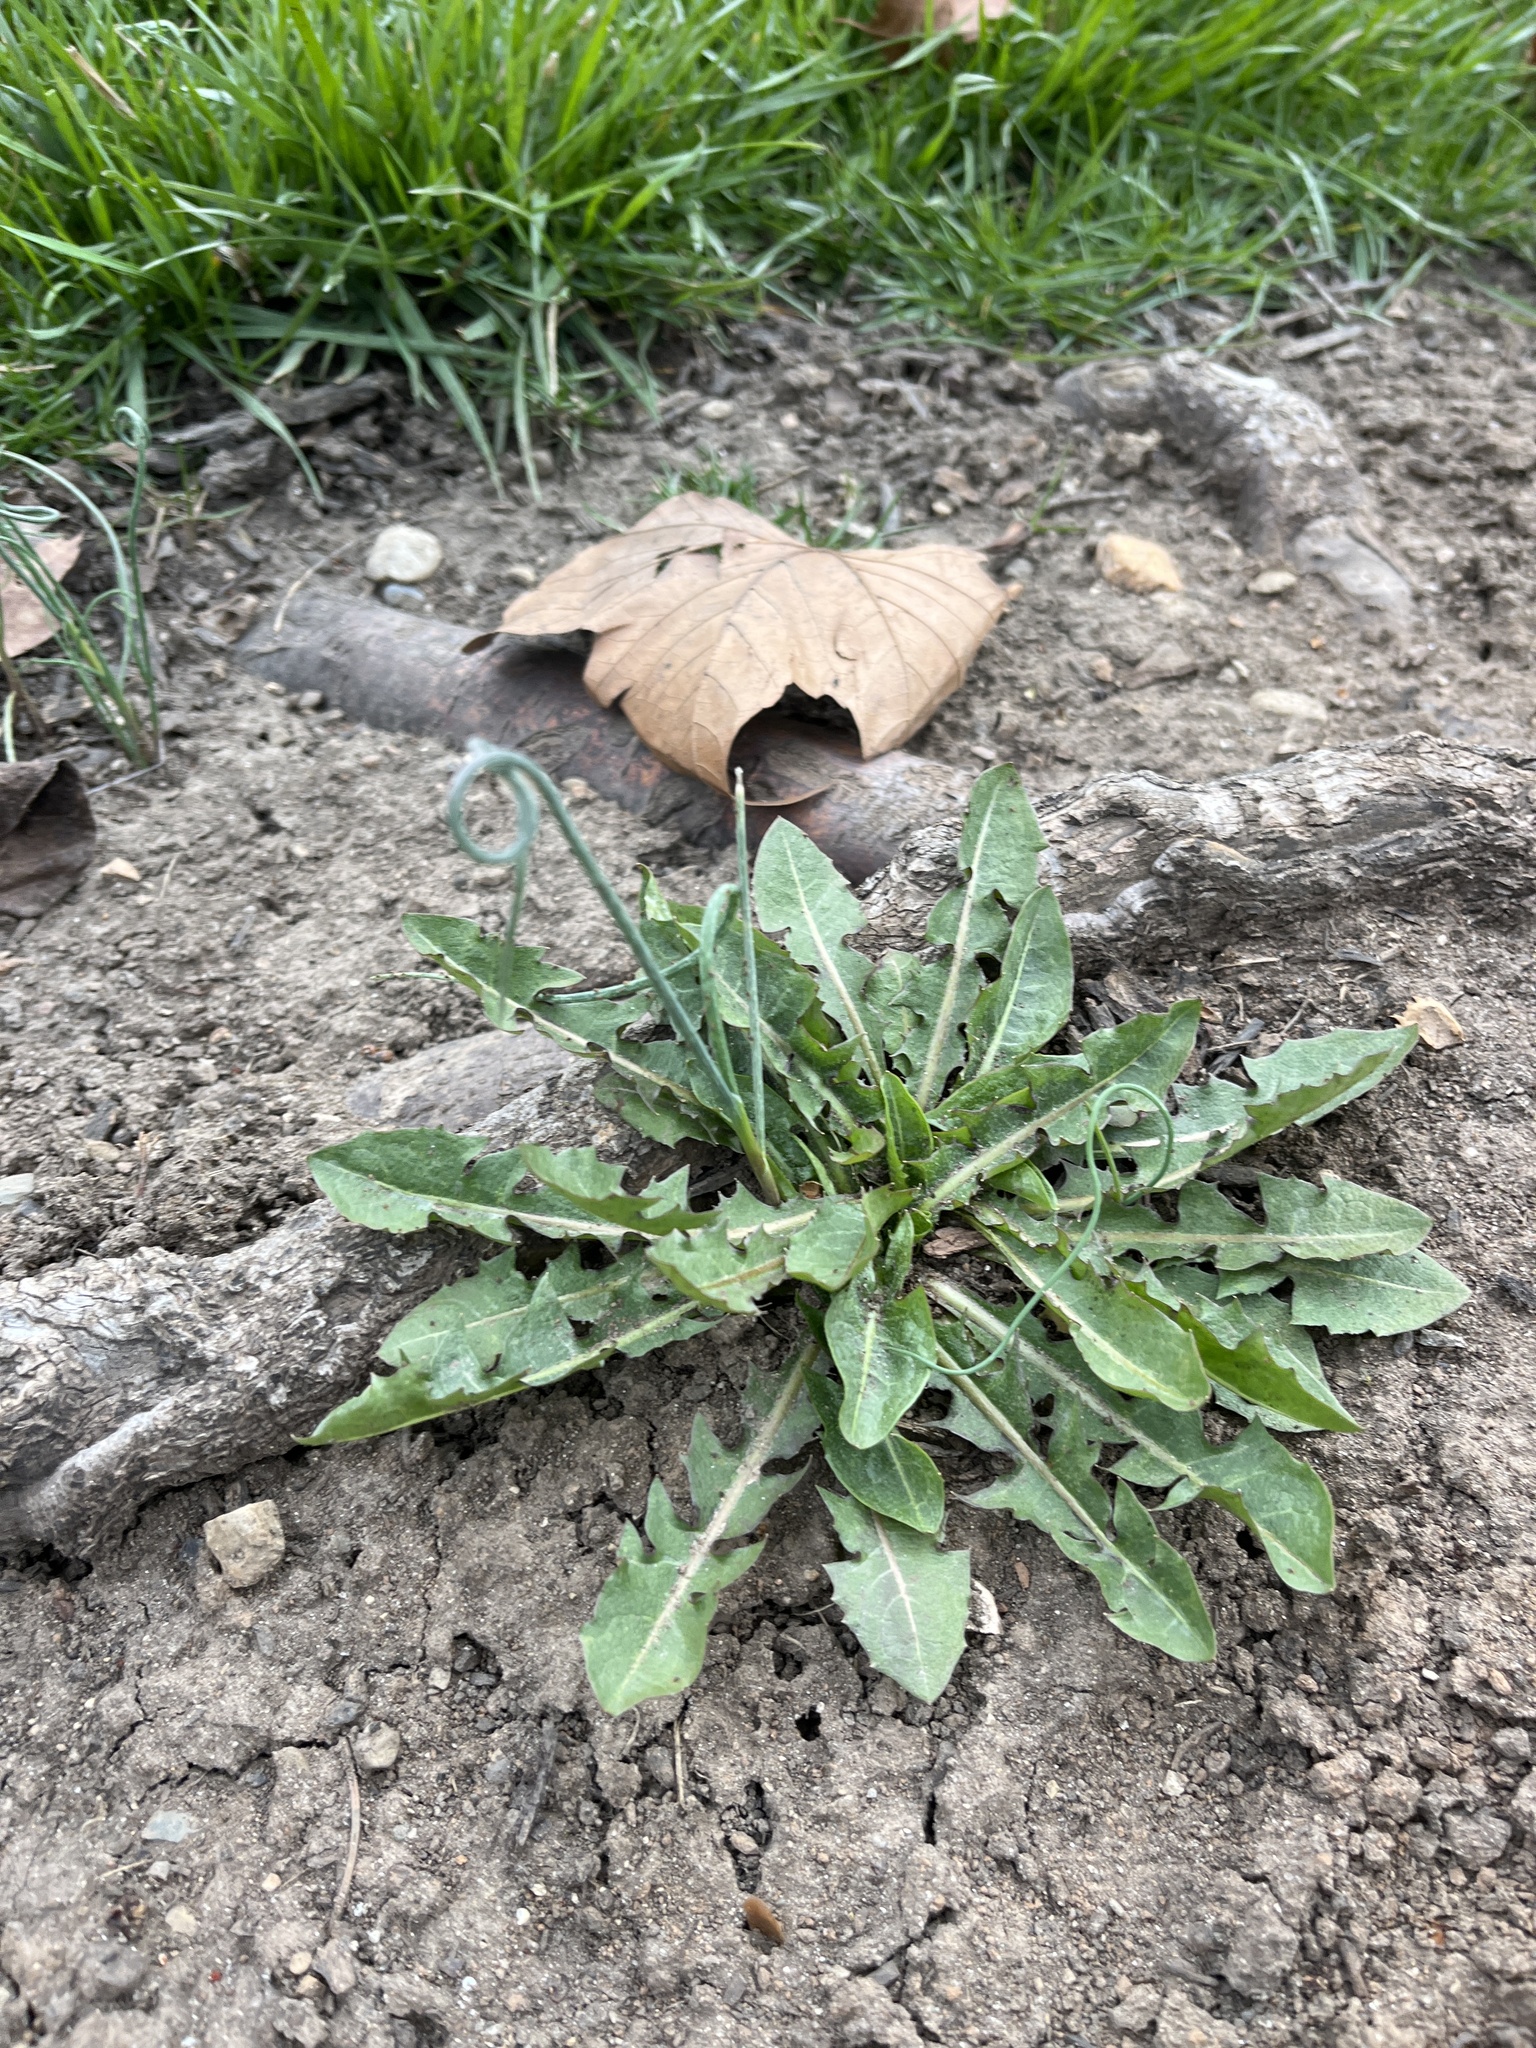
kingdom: Plantae
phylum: Tracheophyta
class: Magnoliopsida
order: Asterales
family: Asteraceae
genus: Taraxacum
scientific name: Taraxacum officinale
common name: Common dandelion
